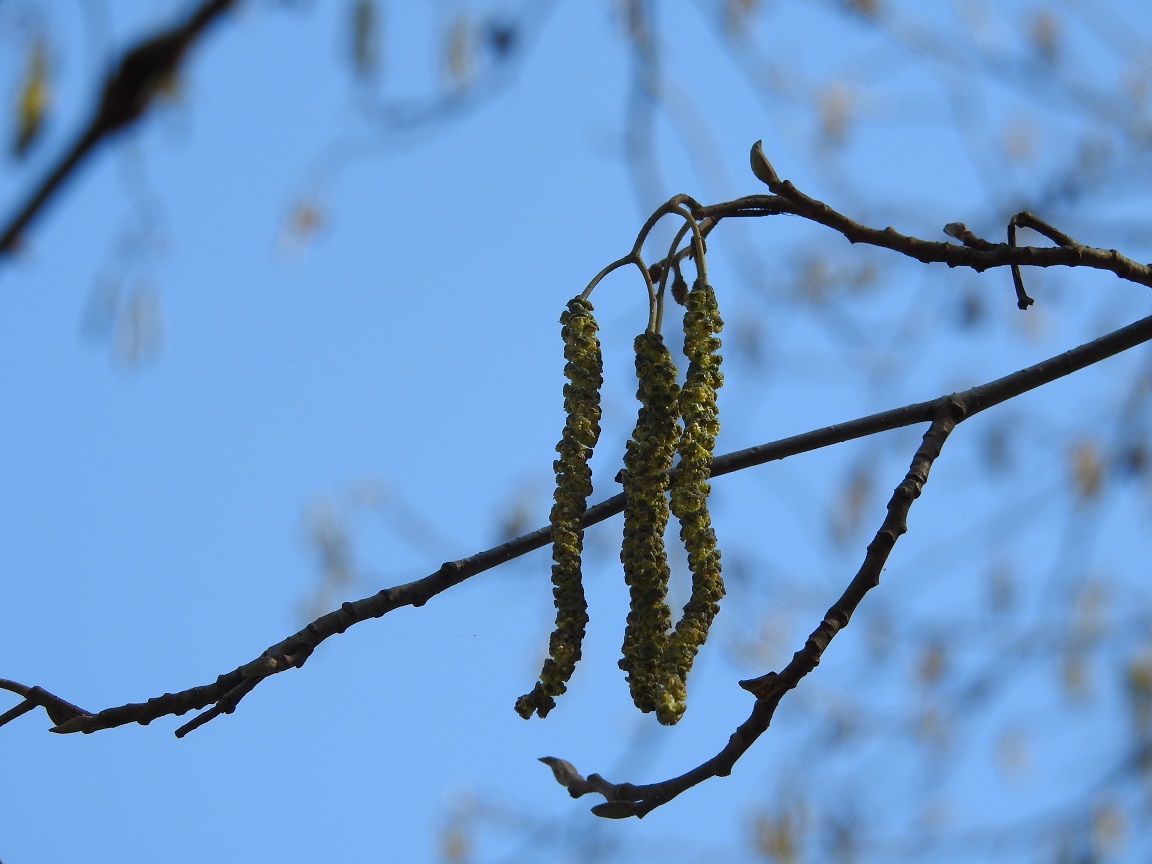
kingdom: Plantae
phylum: Tracheophyta
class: Magnoliopsida
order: Fagales
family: Betulaceae
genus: Alnus
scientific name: Alnus glutinosa
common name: Black alder
